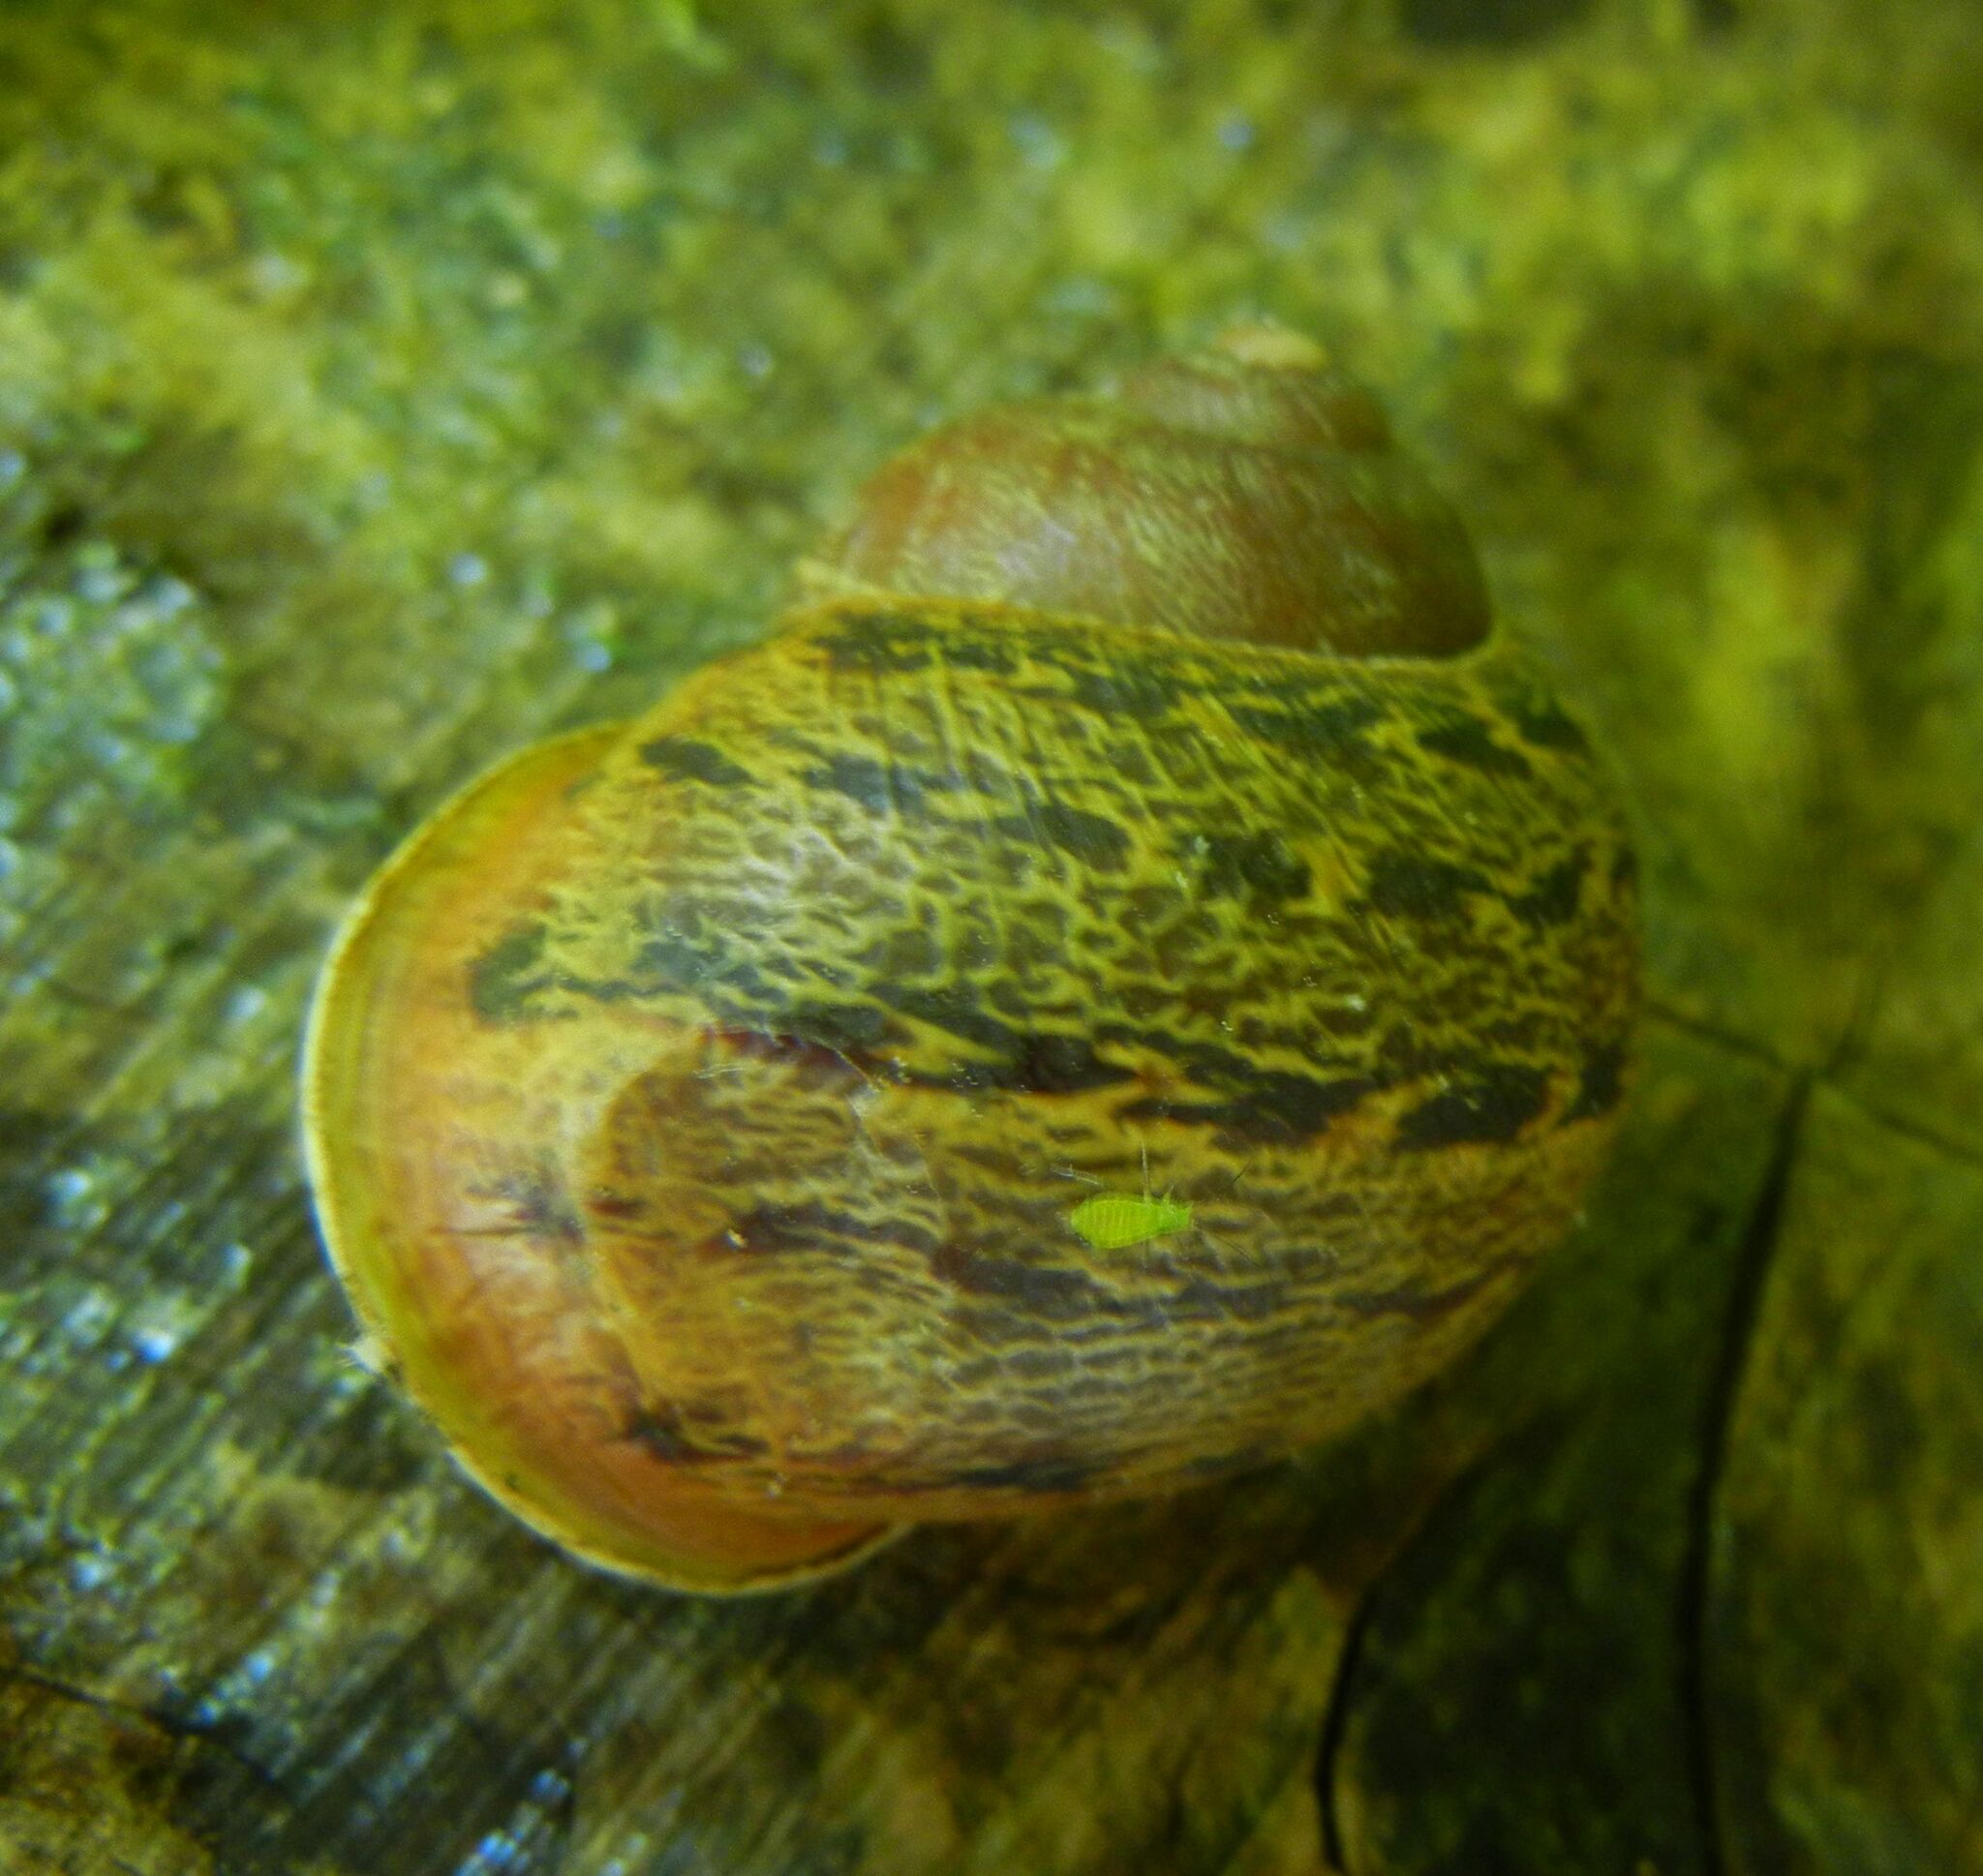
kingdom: Animalia
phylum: Mollusca
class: Gastropoda
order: Stylommatophora
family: Helicidae
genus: Cornu
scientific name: Cornu aspersum
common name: Brown garden snail
